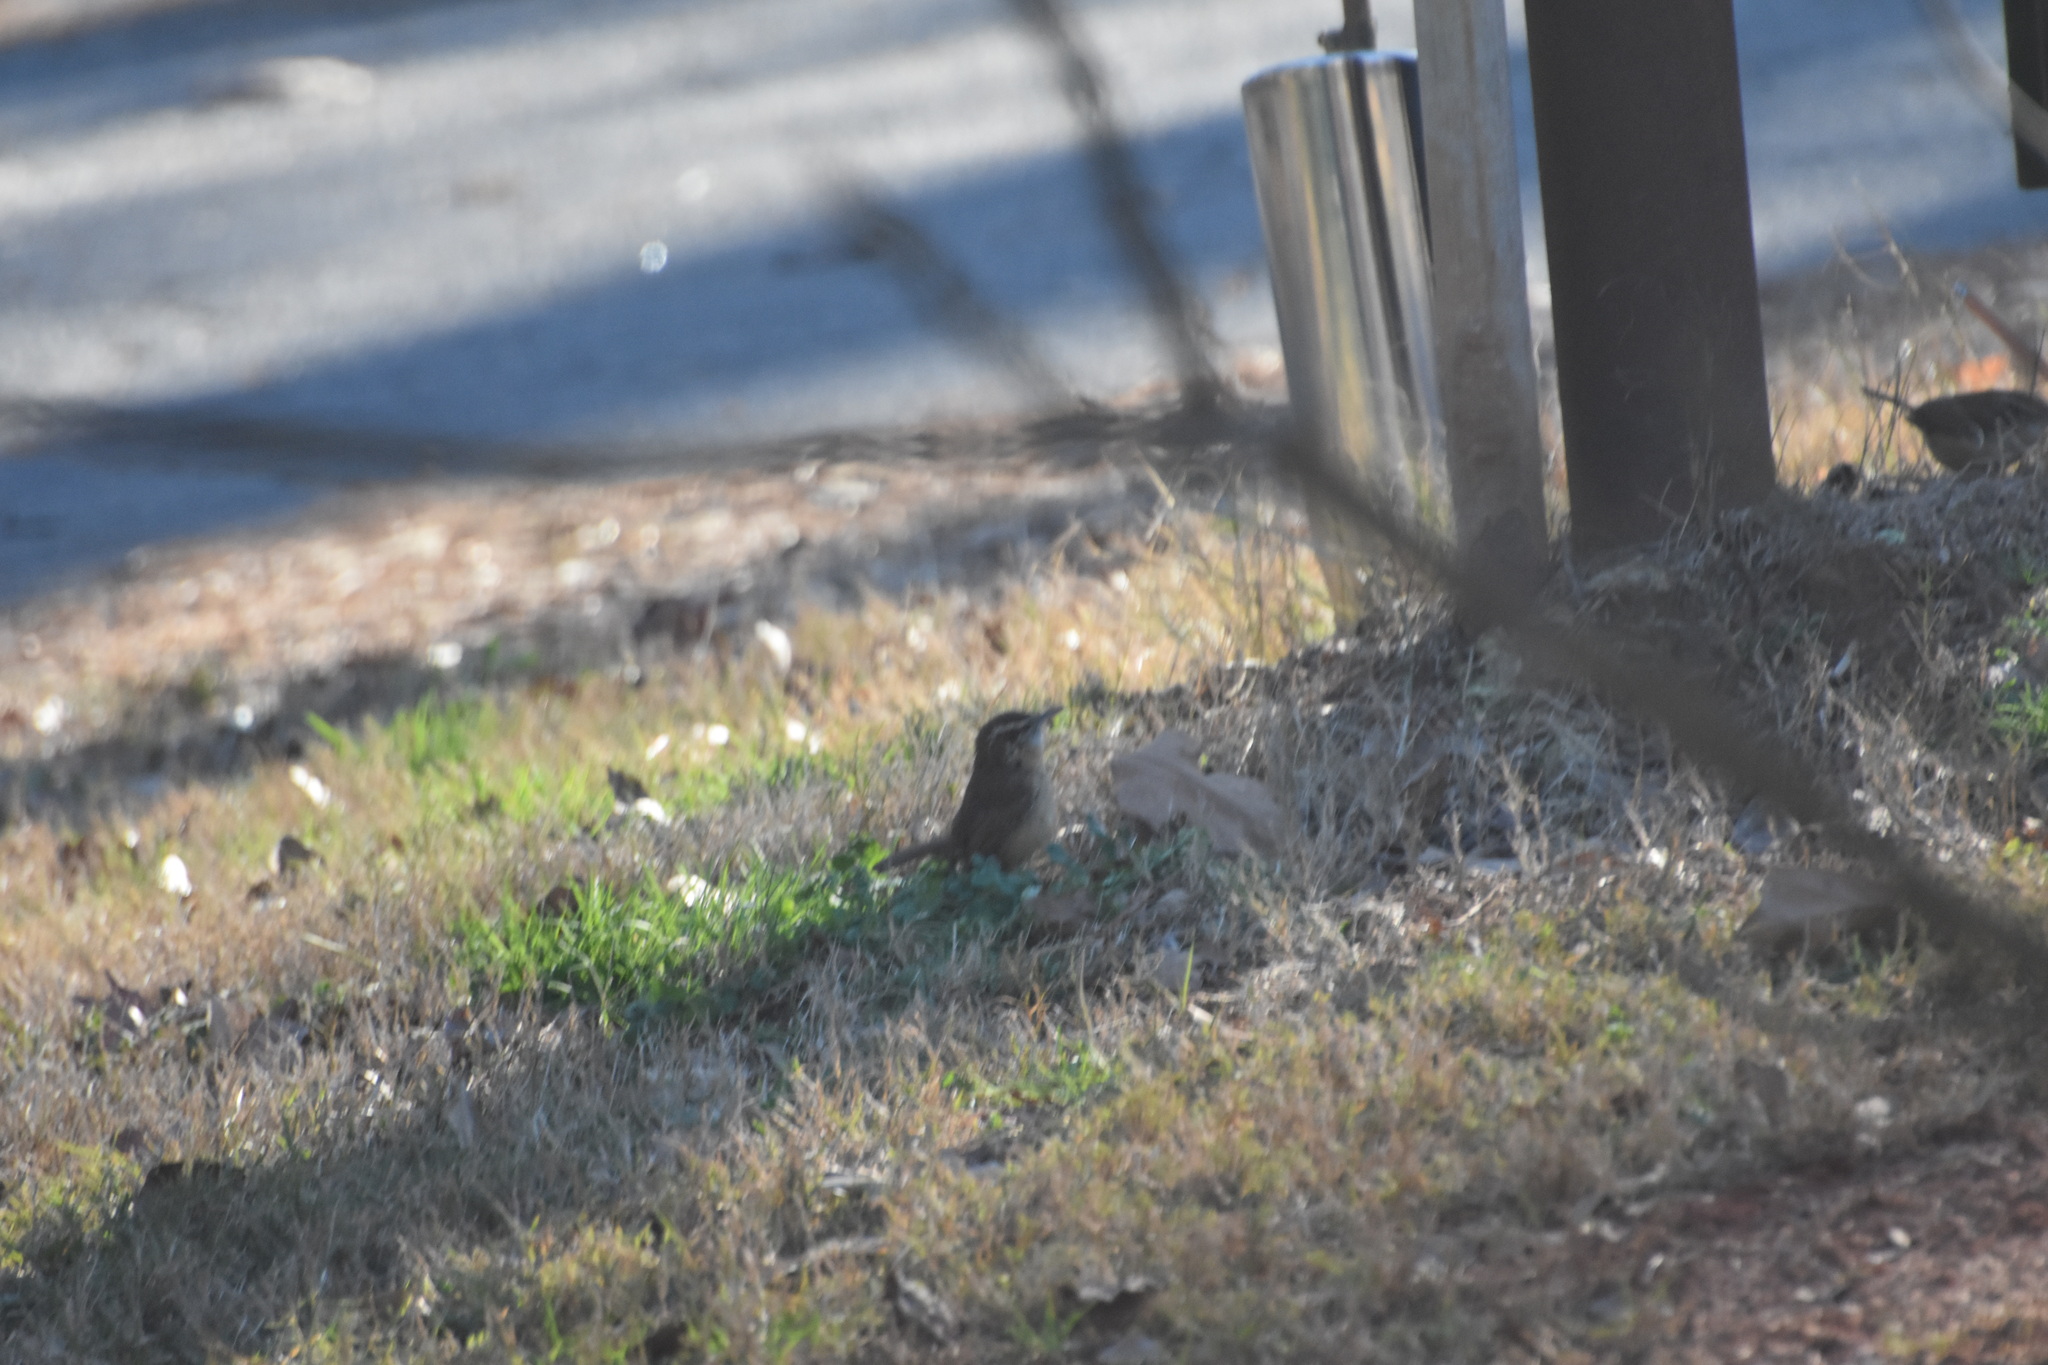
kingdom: Animalia
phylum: Chordata
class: Aves
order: Passeriformes
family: Troglodytidae
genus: Thryothorus
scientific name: Thryothorus ludovicianus
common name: Carolina wren
